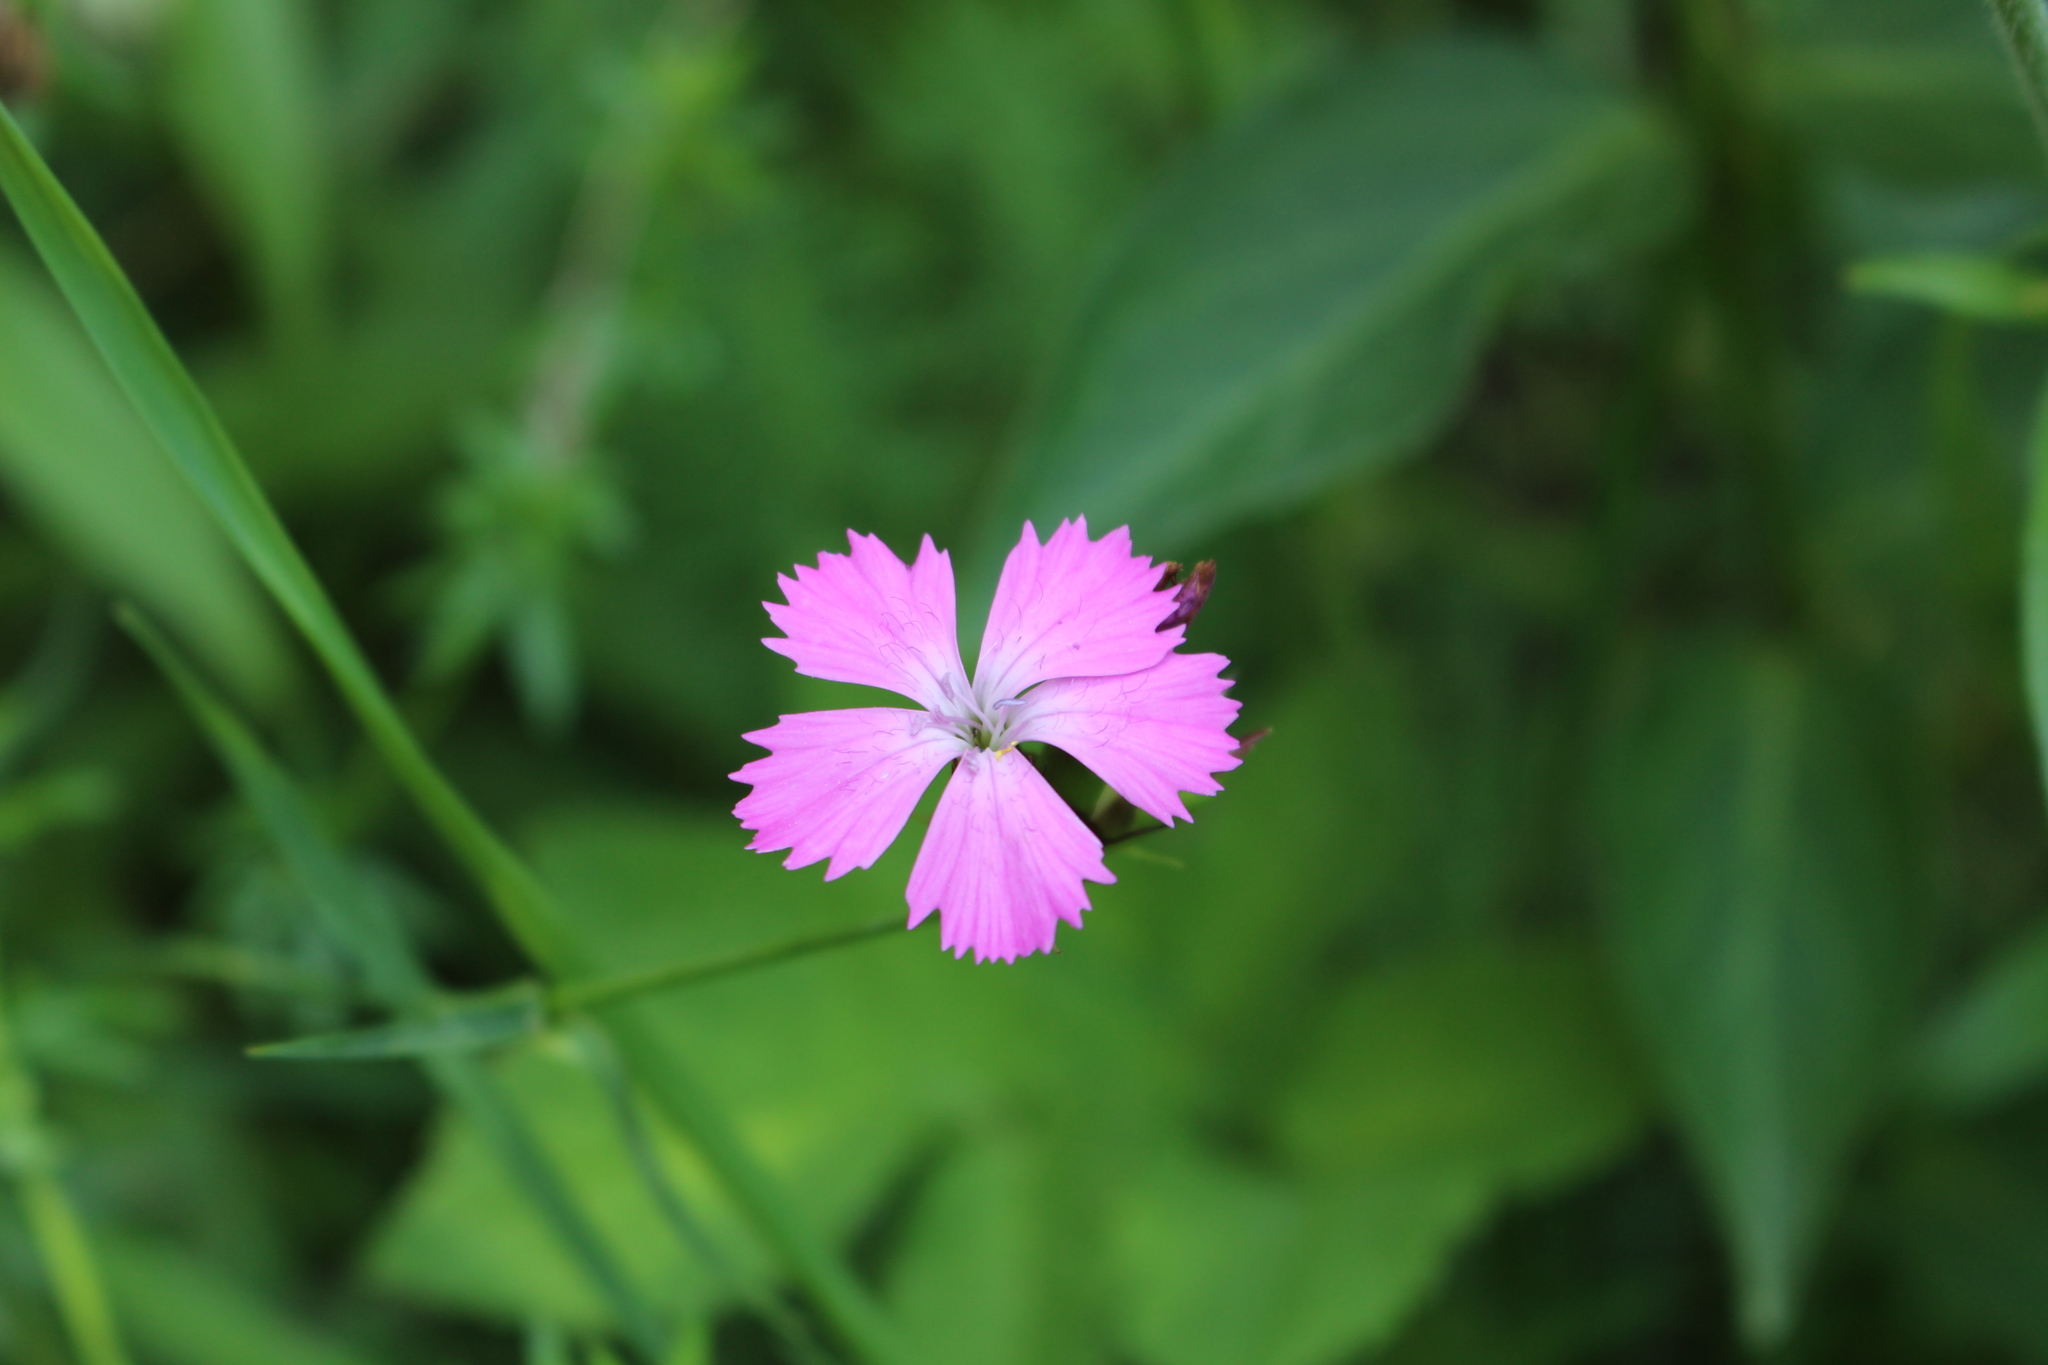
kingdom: Plantae
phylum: Tracheophyta
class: Magnoliopsida
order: Caryophyllales
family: Caryophyllaceae
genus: Dianthus
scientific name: Dianthus carthusianorum
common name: Carthusian pink
